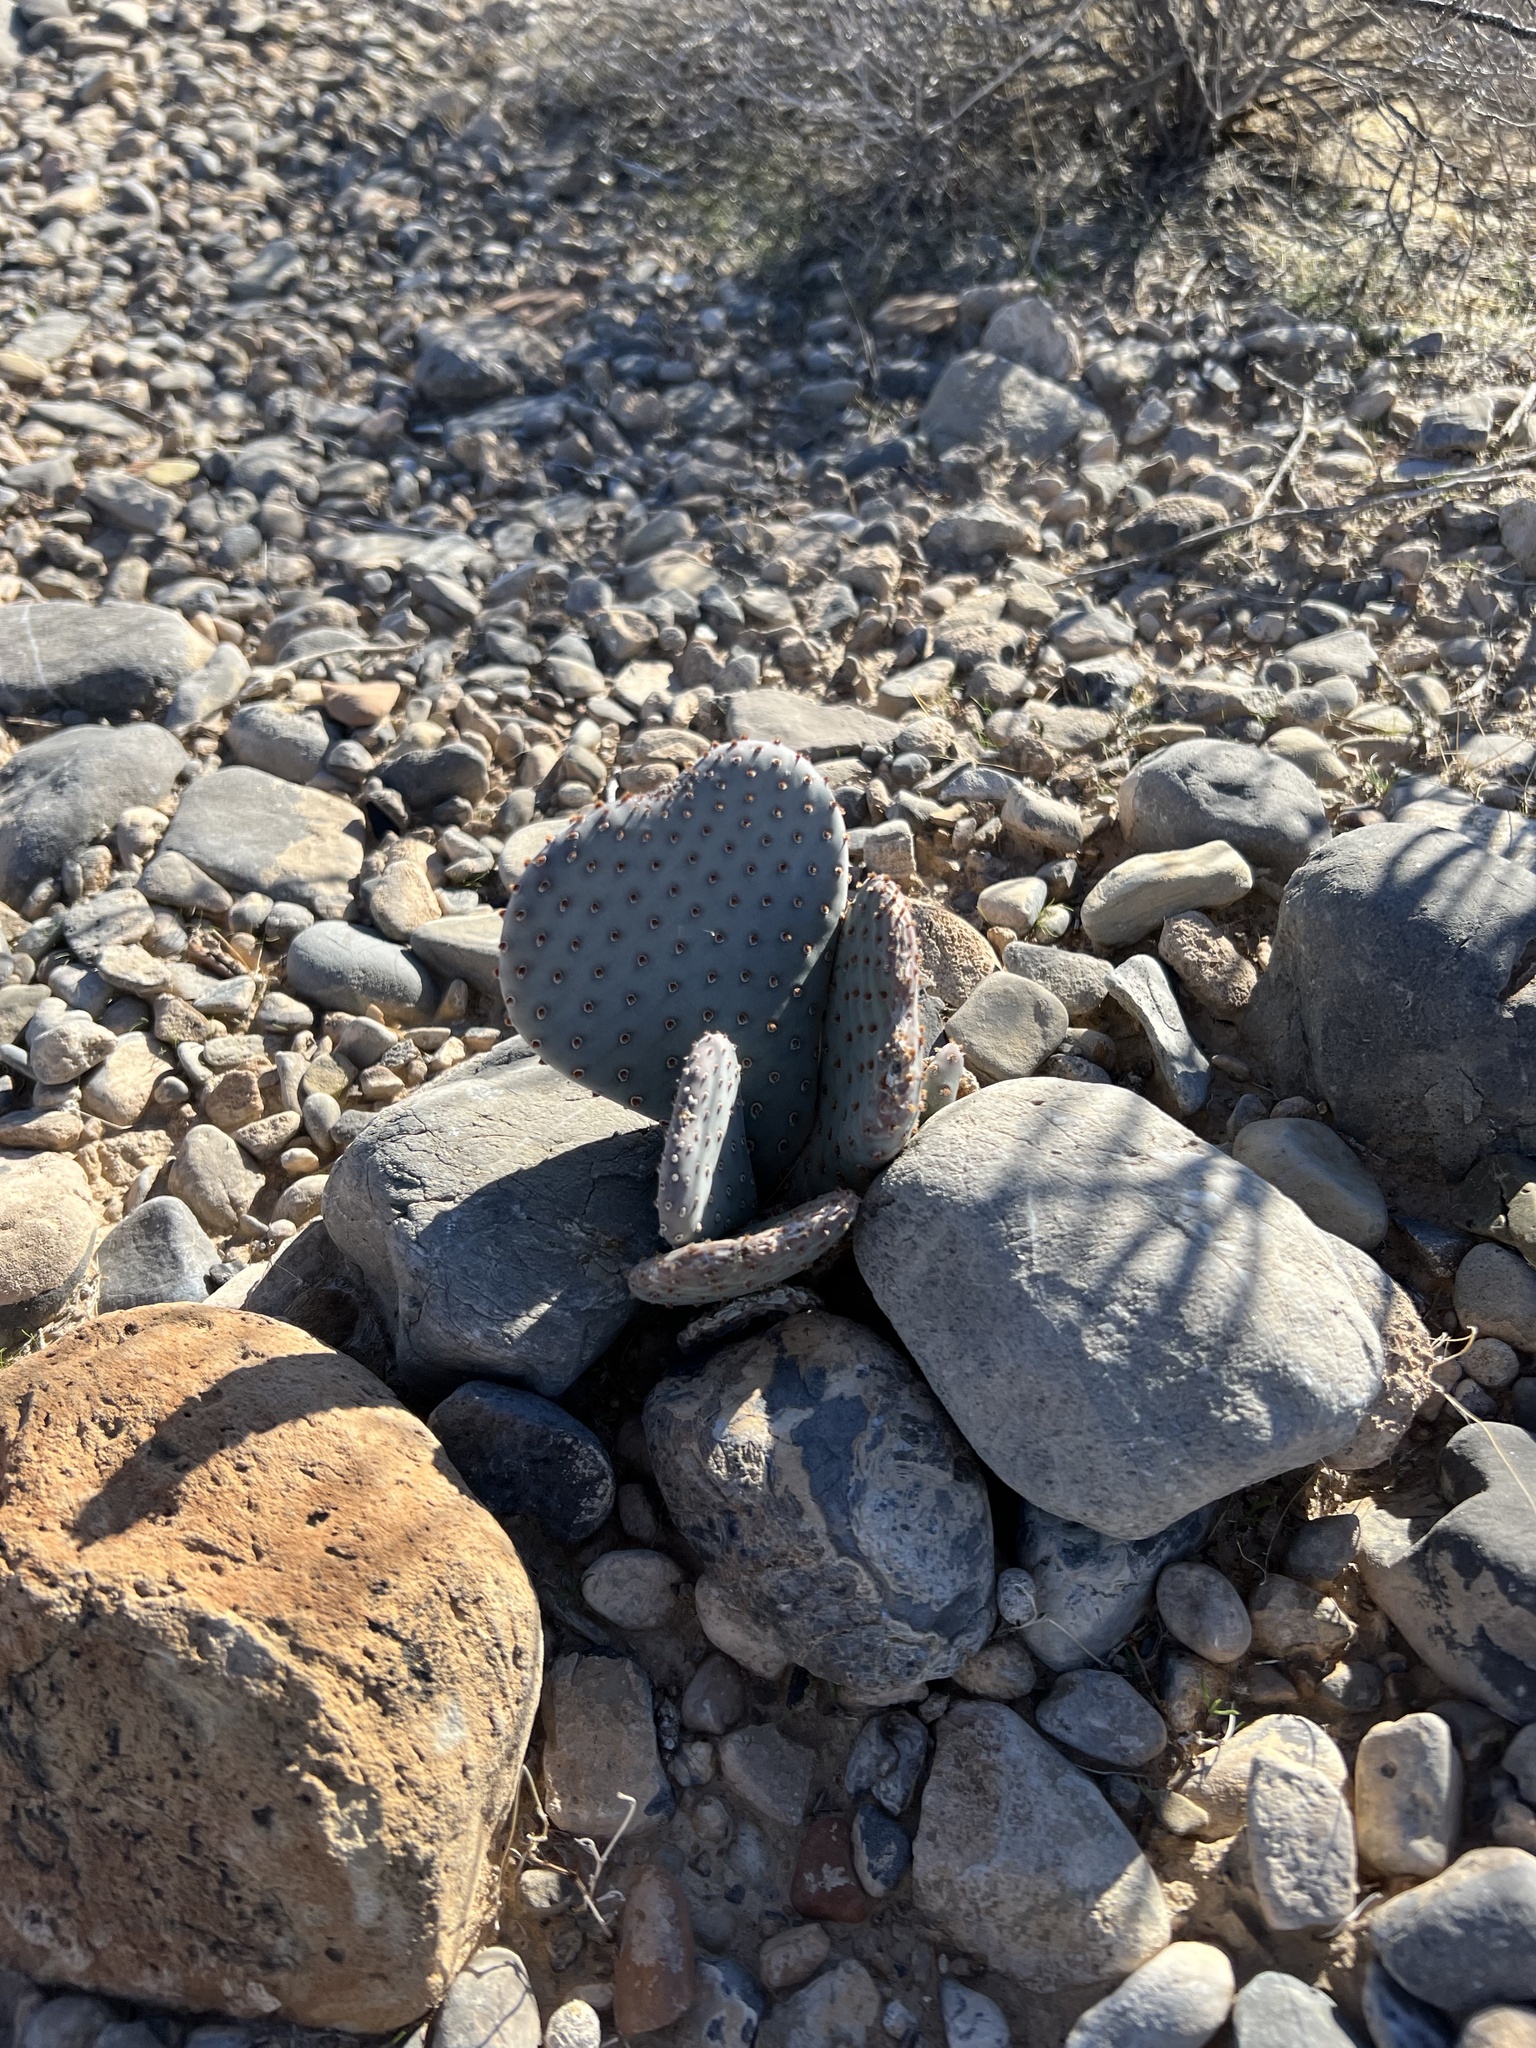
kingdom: Plantae
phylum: Tracheophyta
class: Magnoliopsida
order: Caryophyllales
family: Cactaceae
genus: Opuntia
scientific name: Opuntia basilaris
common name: Beavertail prickly-pear
